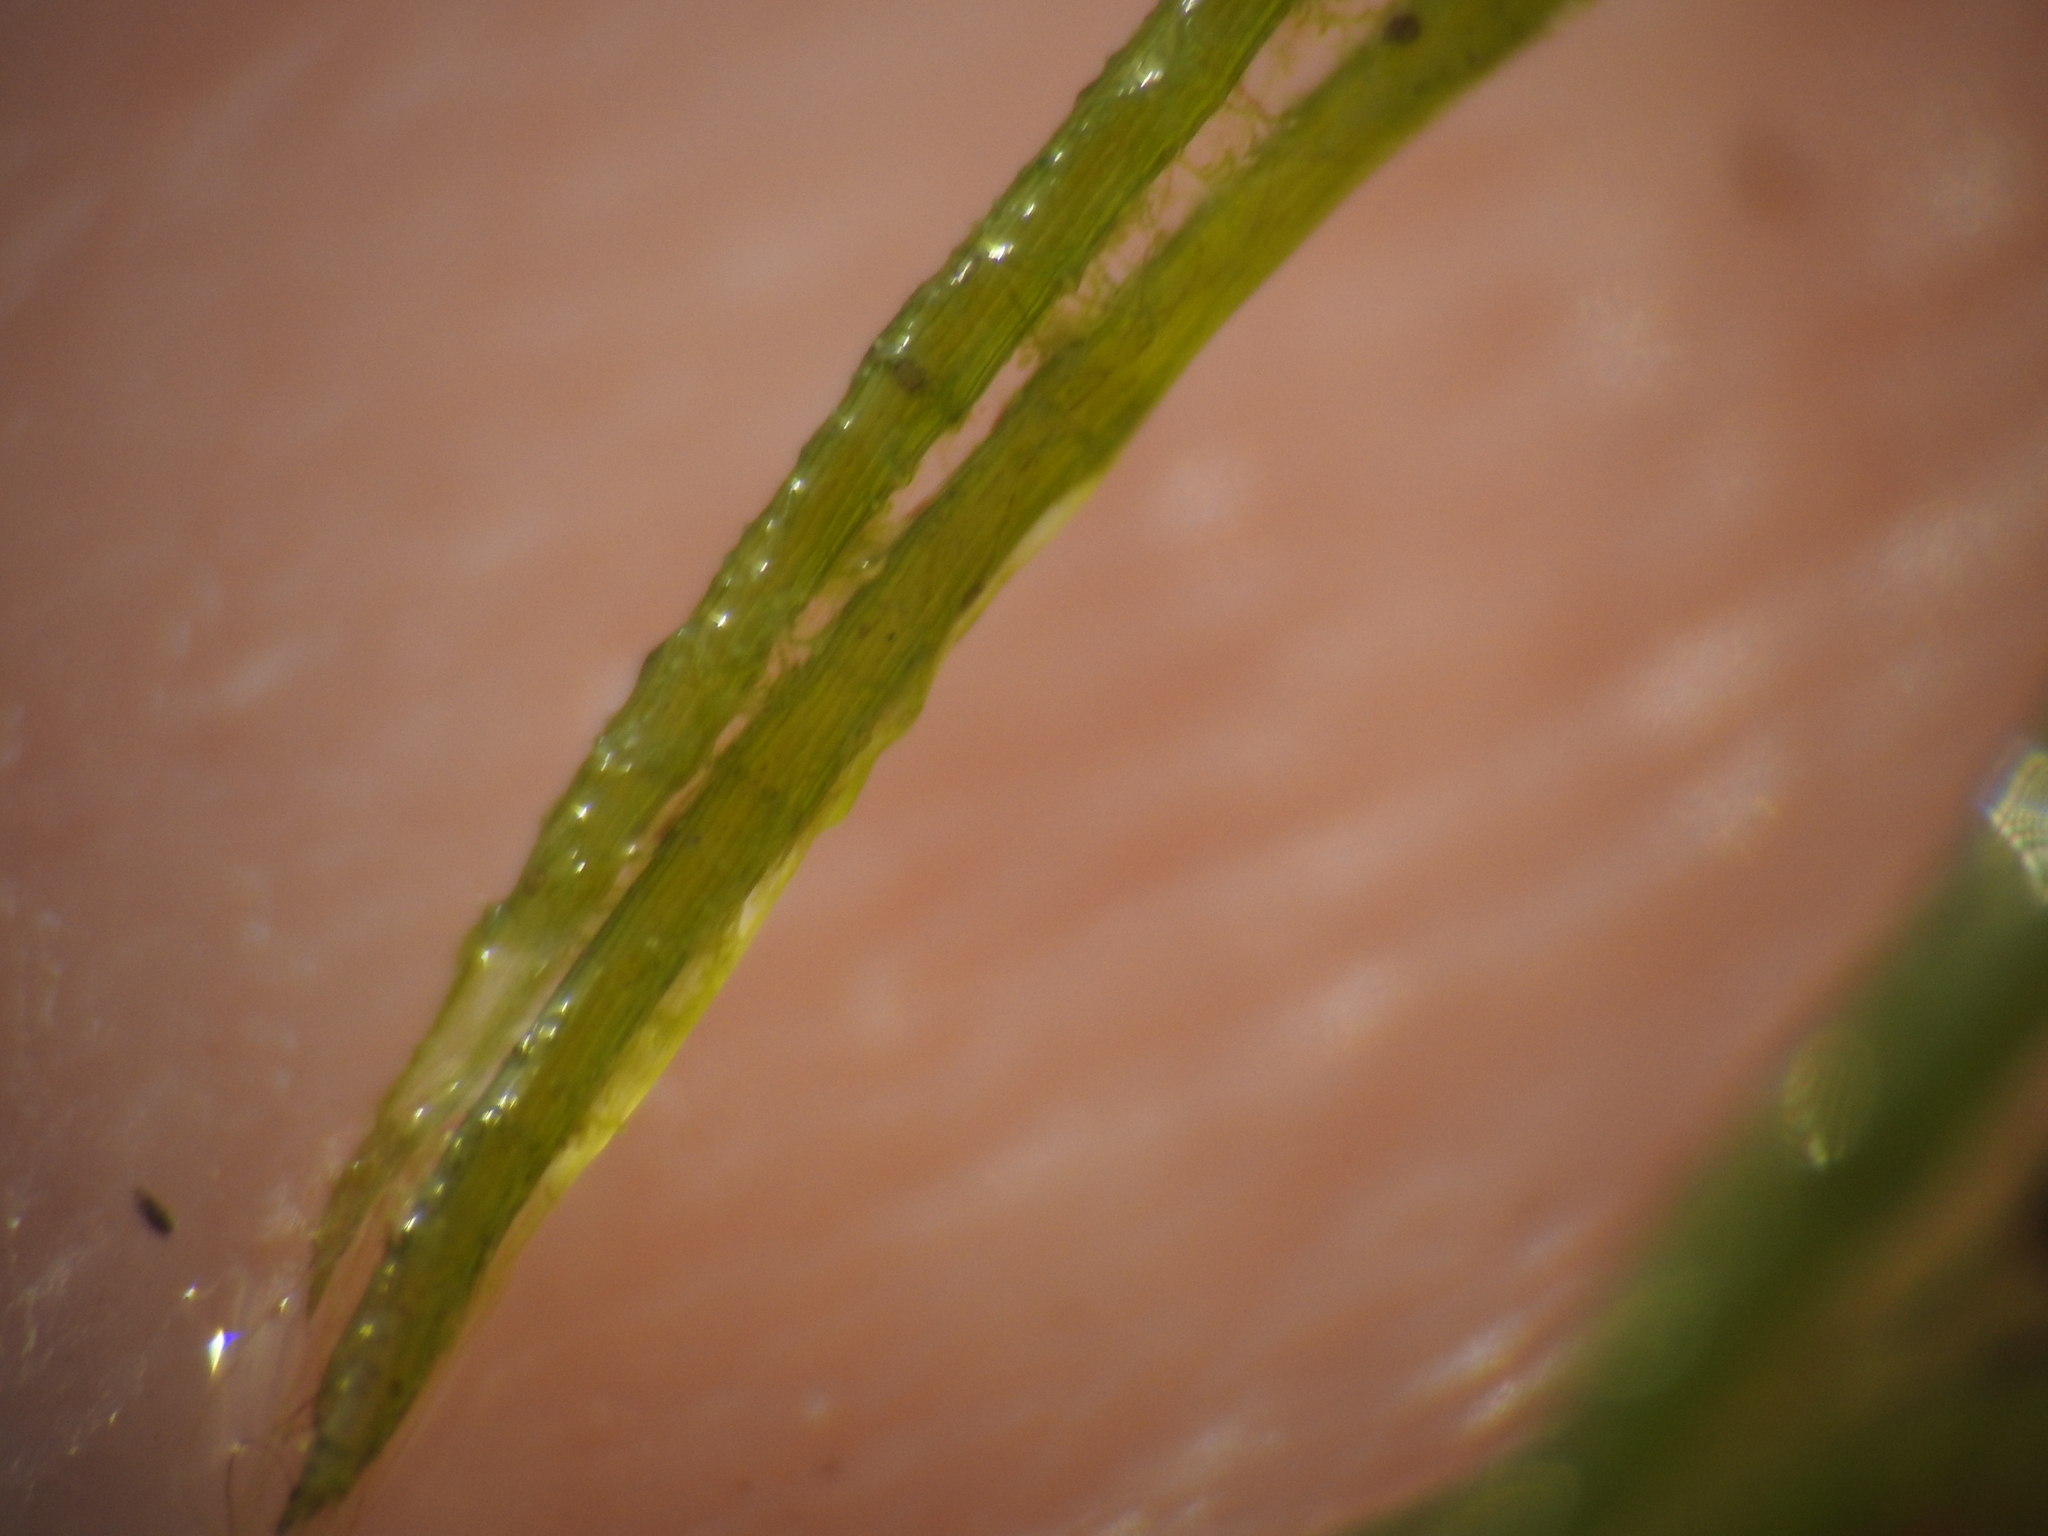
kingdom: Plantae
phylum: Charophyta
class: Charophyceae
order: Charales
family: Characeae
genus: Chara
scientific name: Chara globularis
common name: Fragile stonewort
